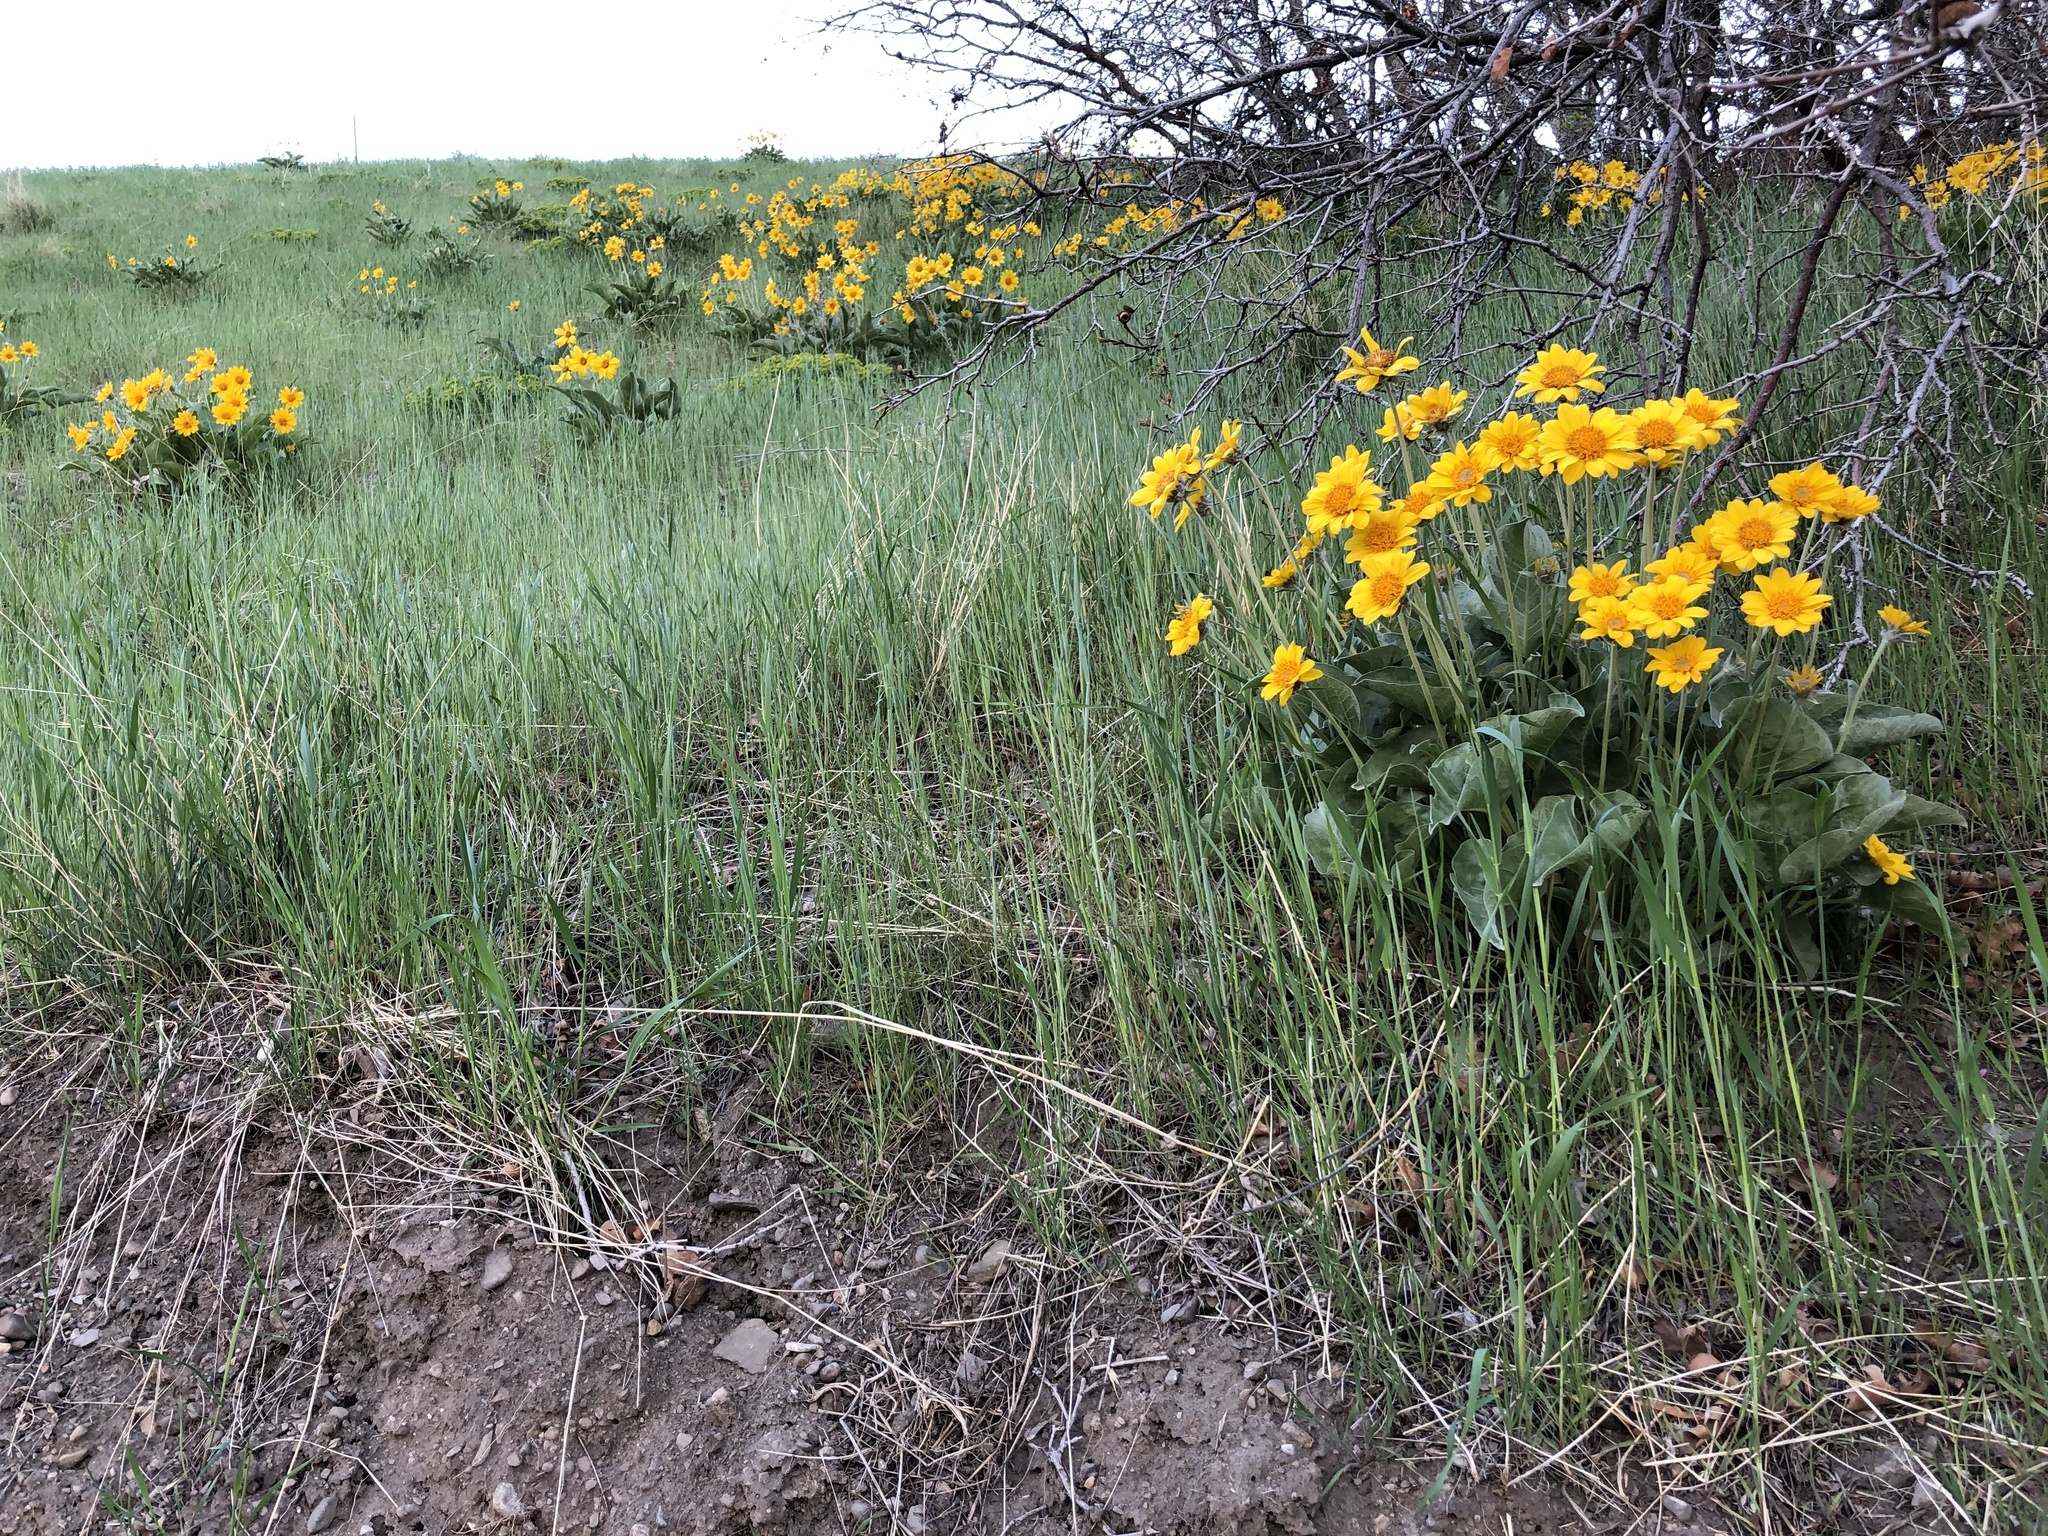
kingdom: Plantae
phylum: Tracheophyta
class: Magnoliopsida
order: Asterales
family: Asteraceae
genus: Wyethia
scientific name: Wyethia sagittata
